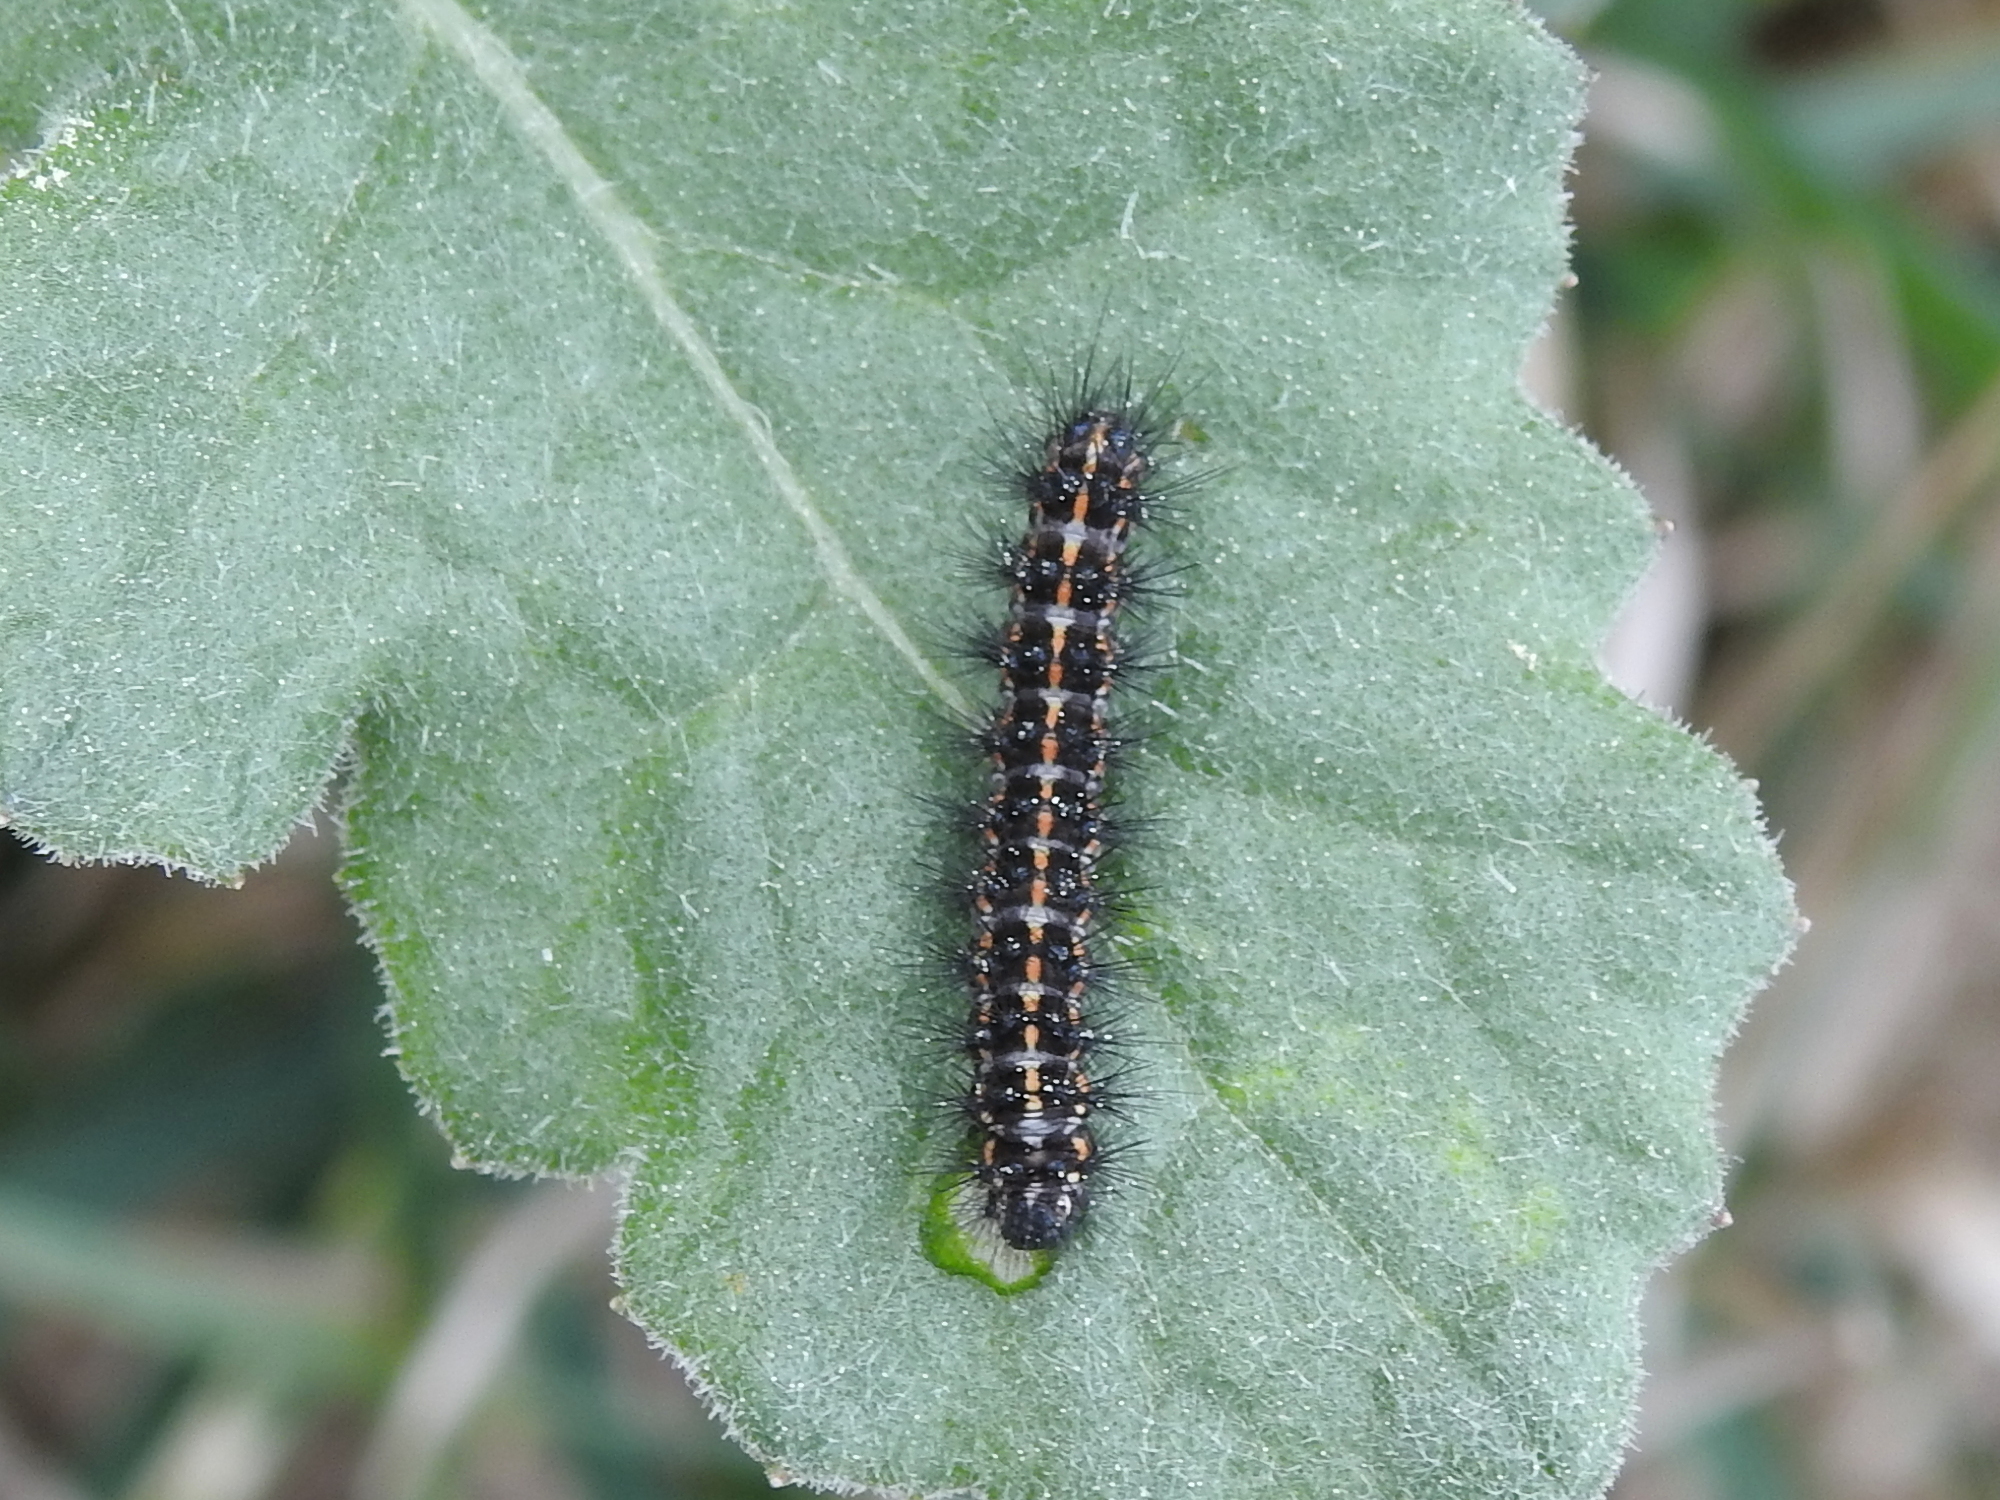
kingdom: Animalia
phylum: Arthropoda
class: Insecta
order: Lepidoptera
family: Erebidae
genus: Nyctemera
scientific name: Nyctemera annulatum
